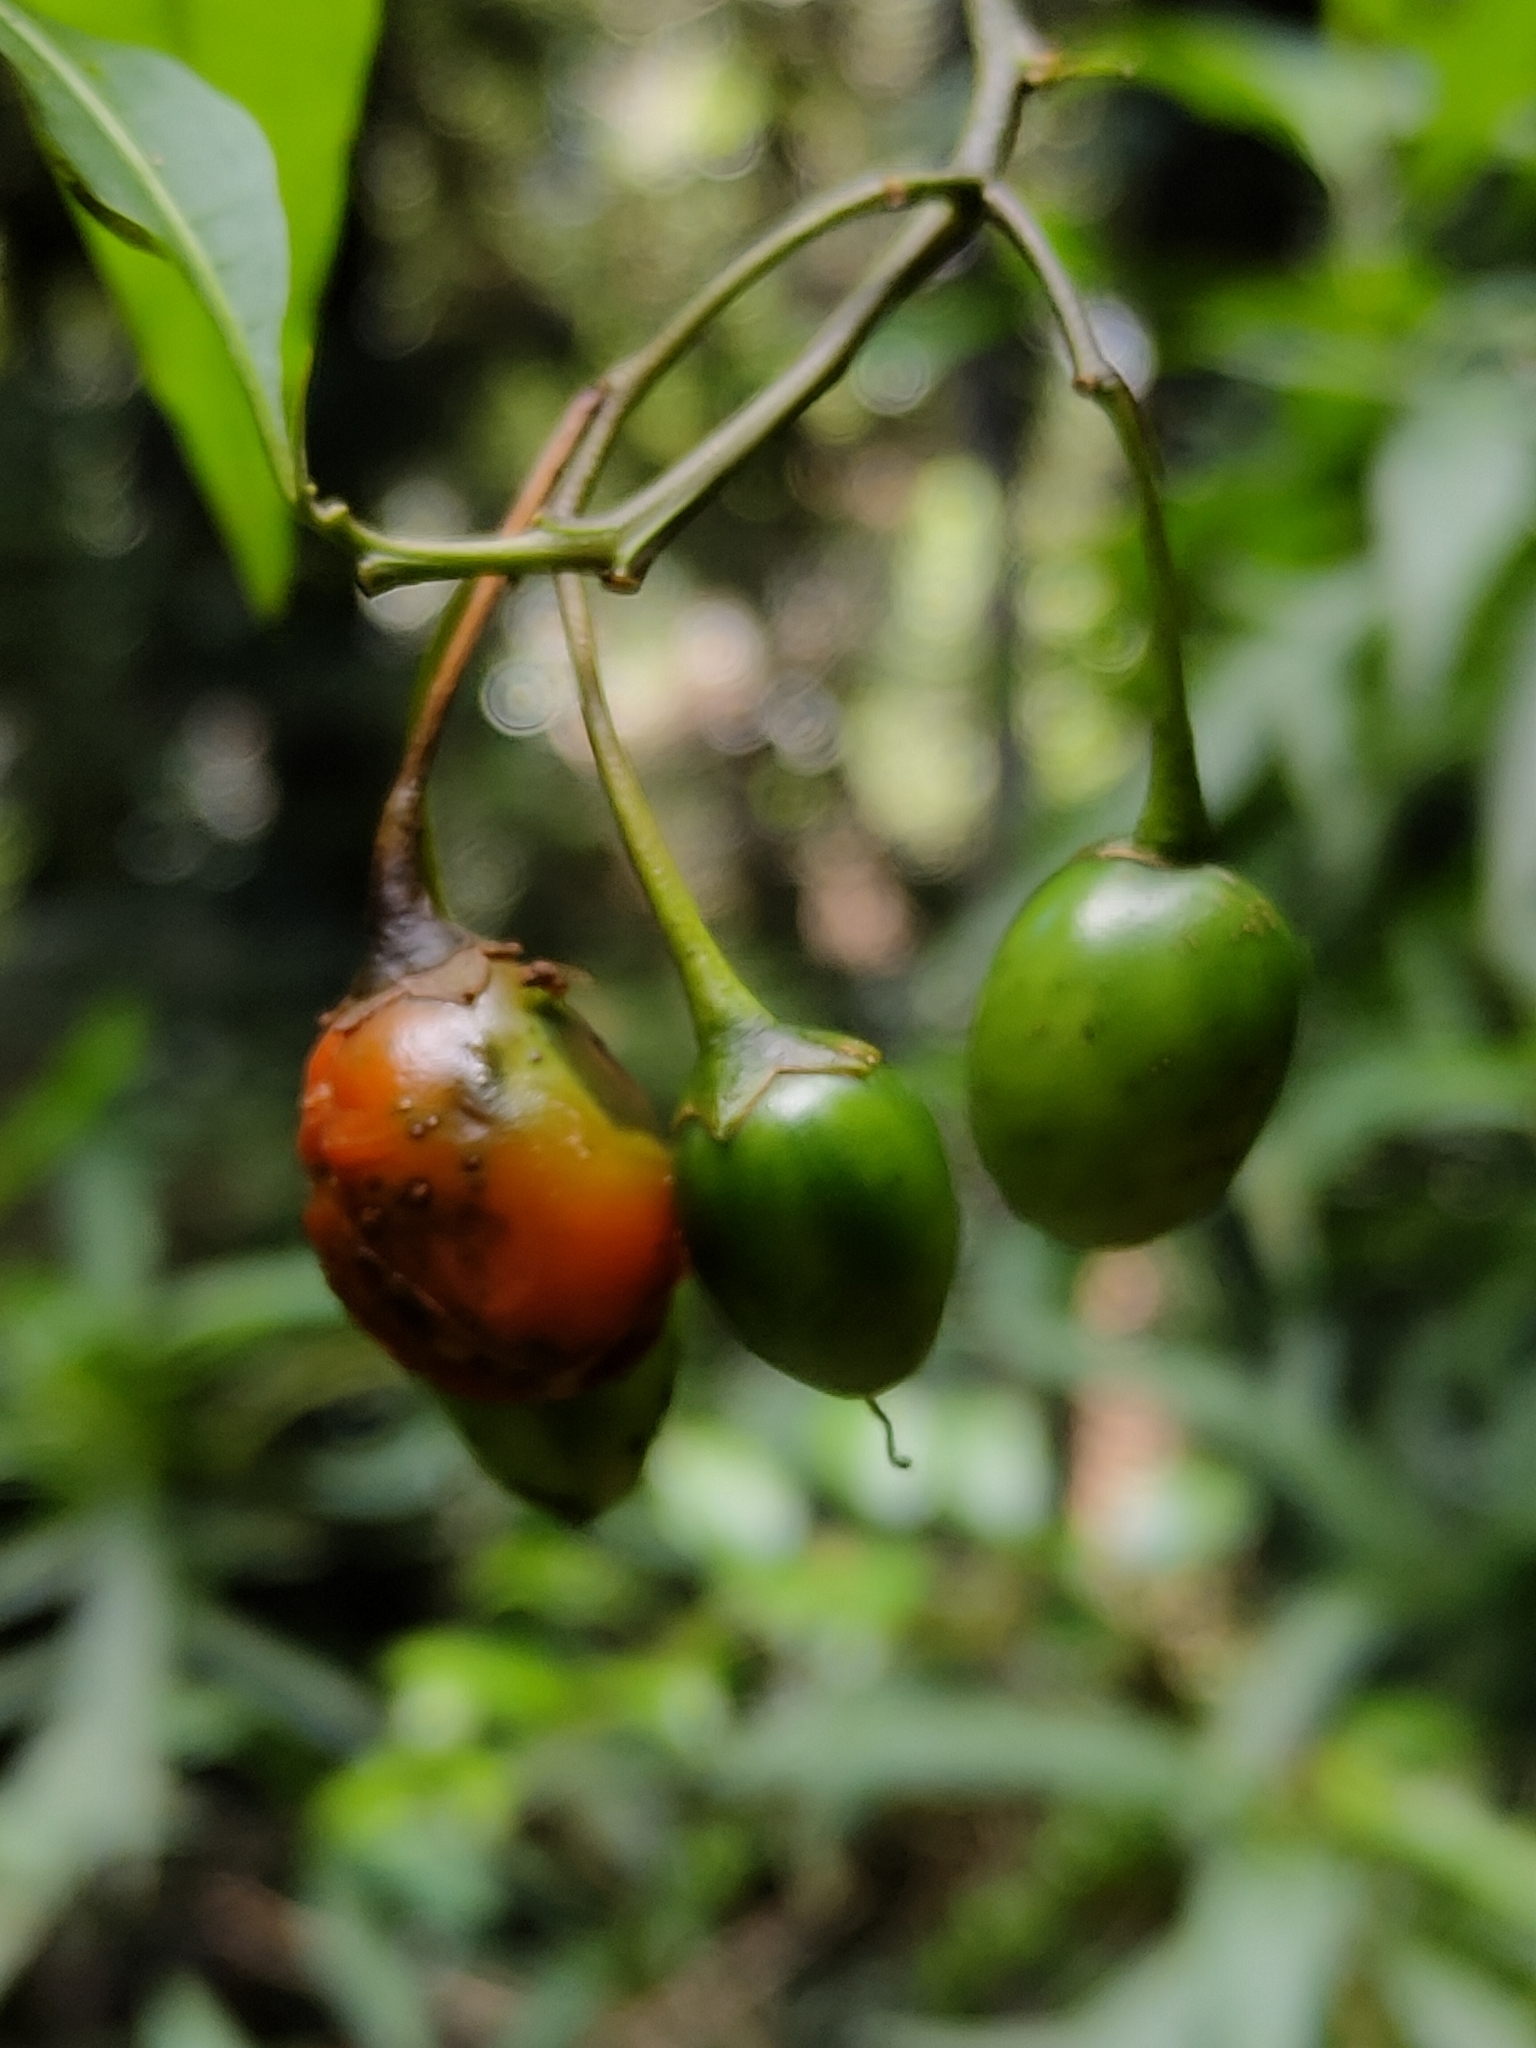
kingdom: Plantae
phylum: Tracheophyta
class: Magnoliopsida
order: Solanales
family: Solanaceae
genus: Solanum
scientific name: Solanum aviculare
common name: New zealand nightshade
